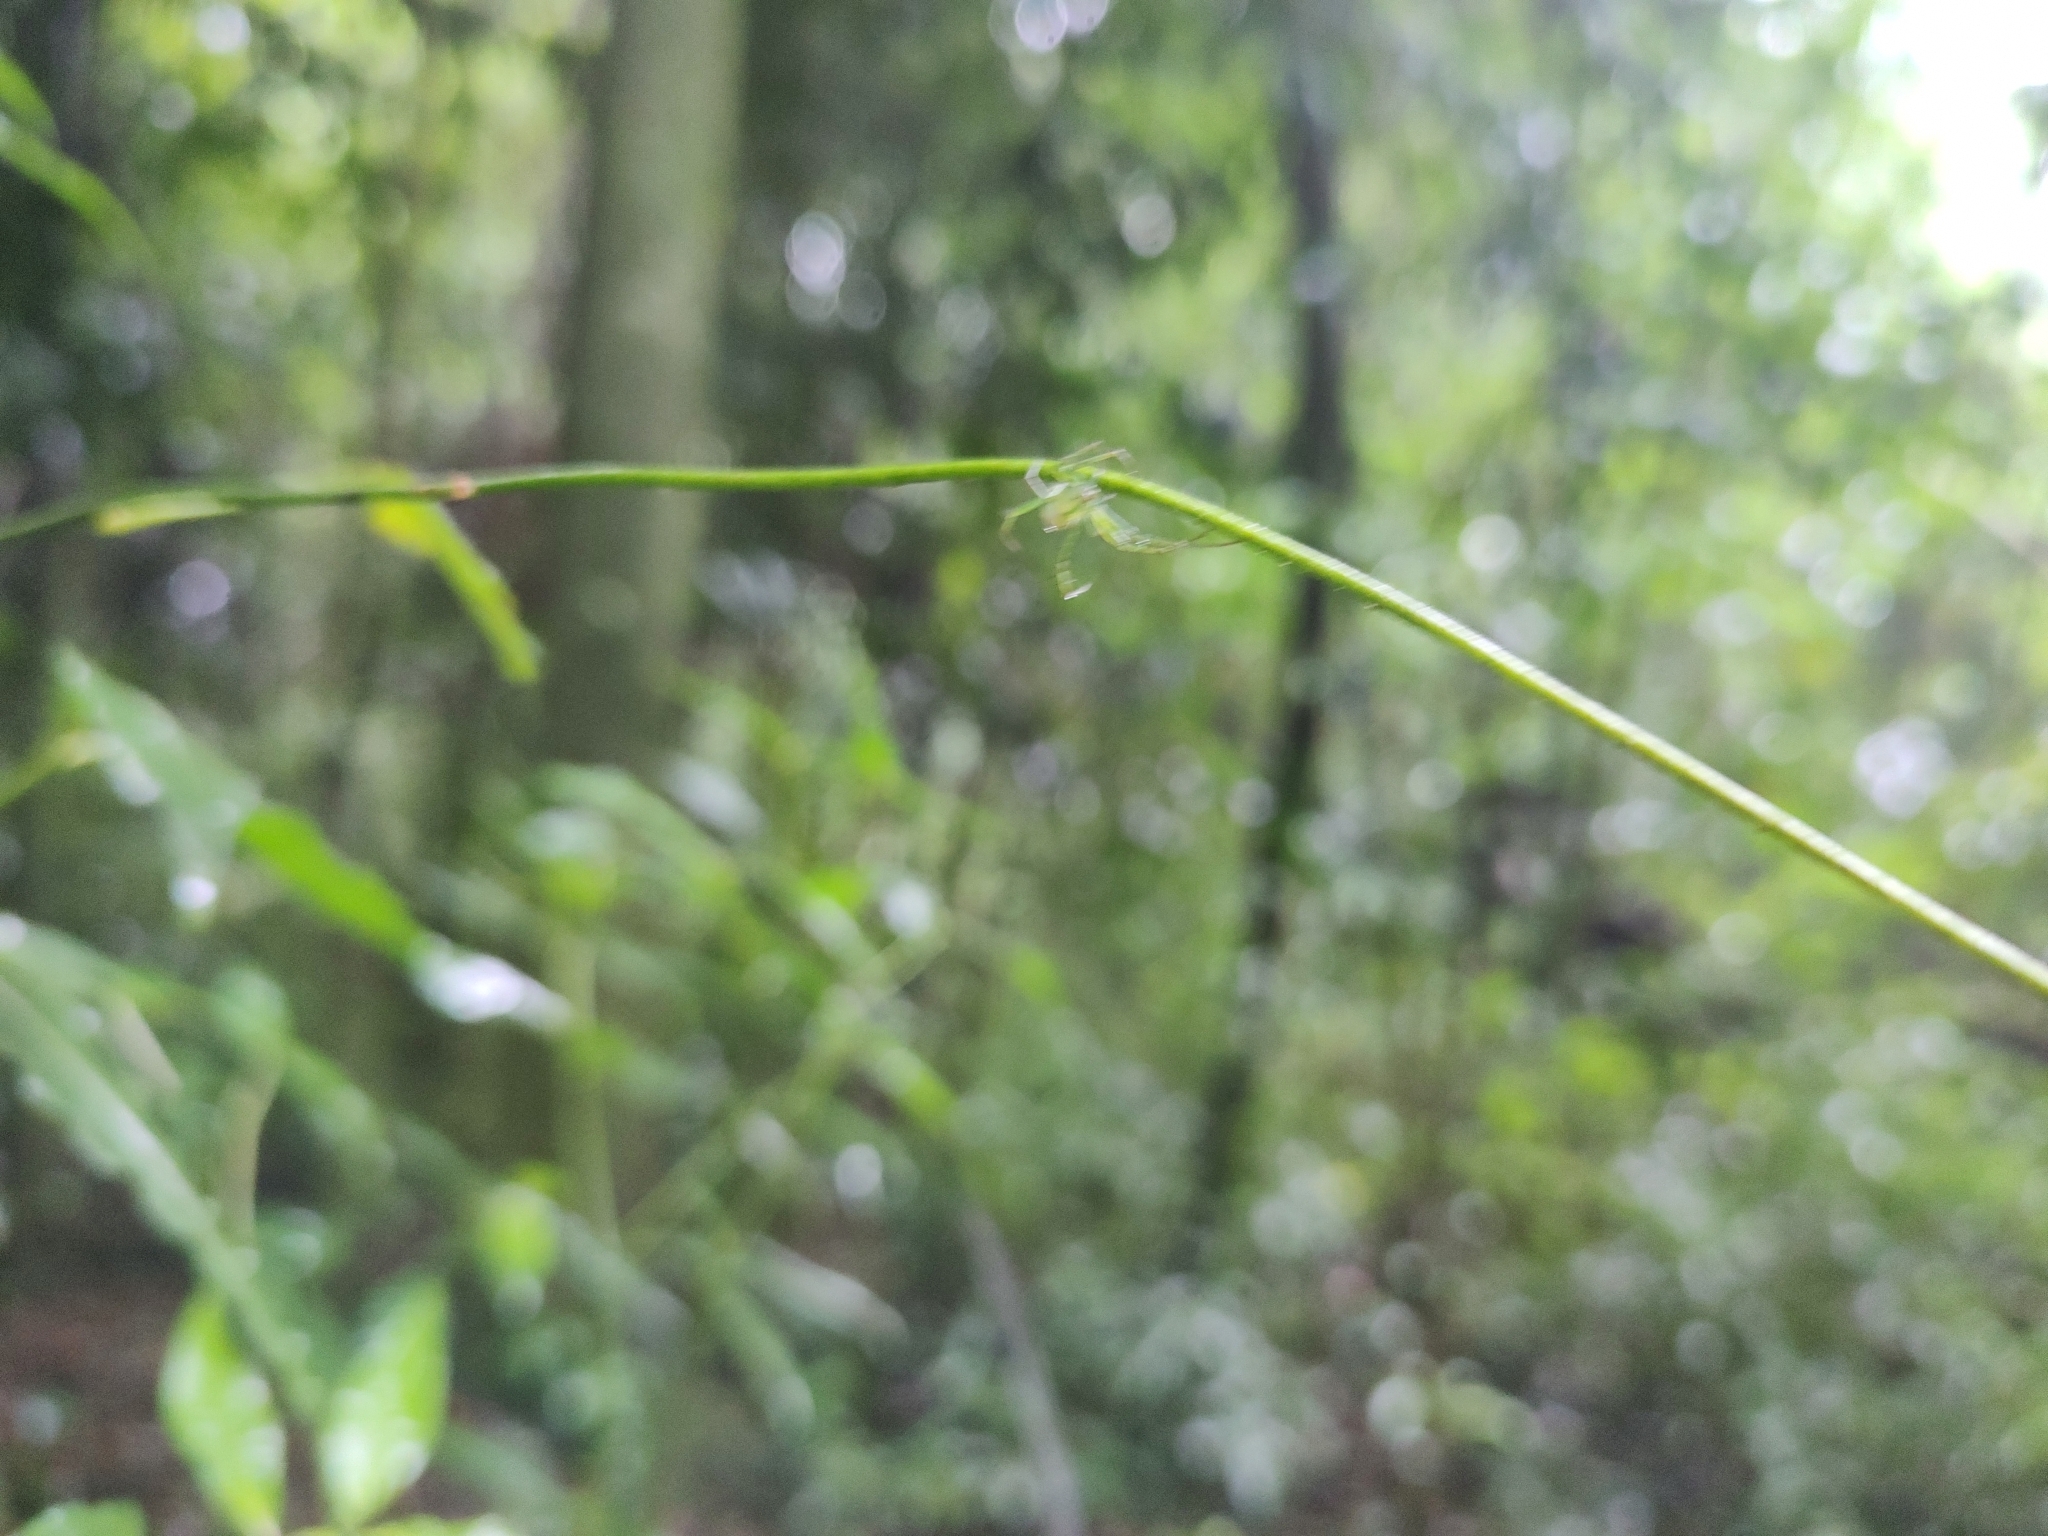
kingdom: Animalia
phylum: Arthropoda
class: Arachnida
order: Araneae
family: Araneidae
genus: Mangora
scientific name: Mangora strenua
